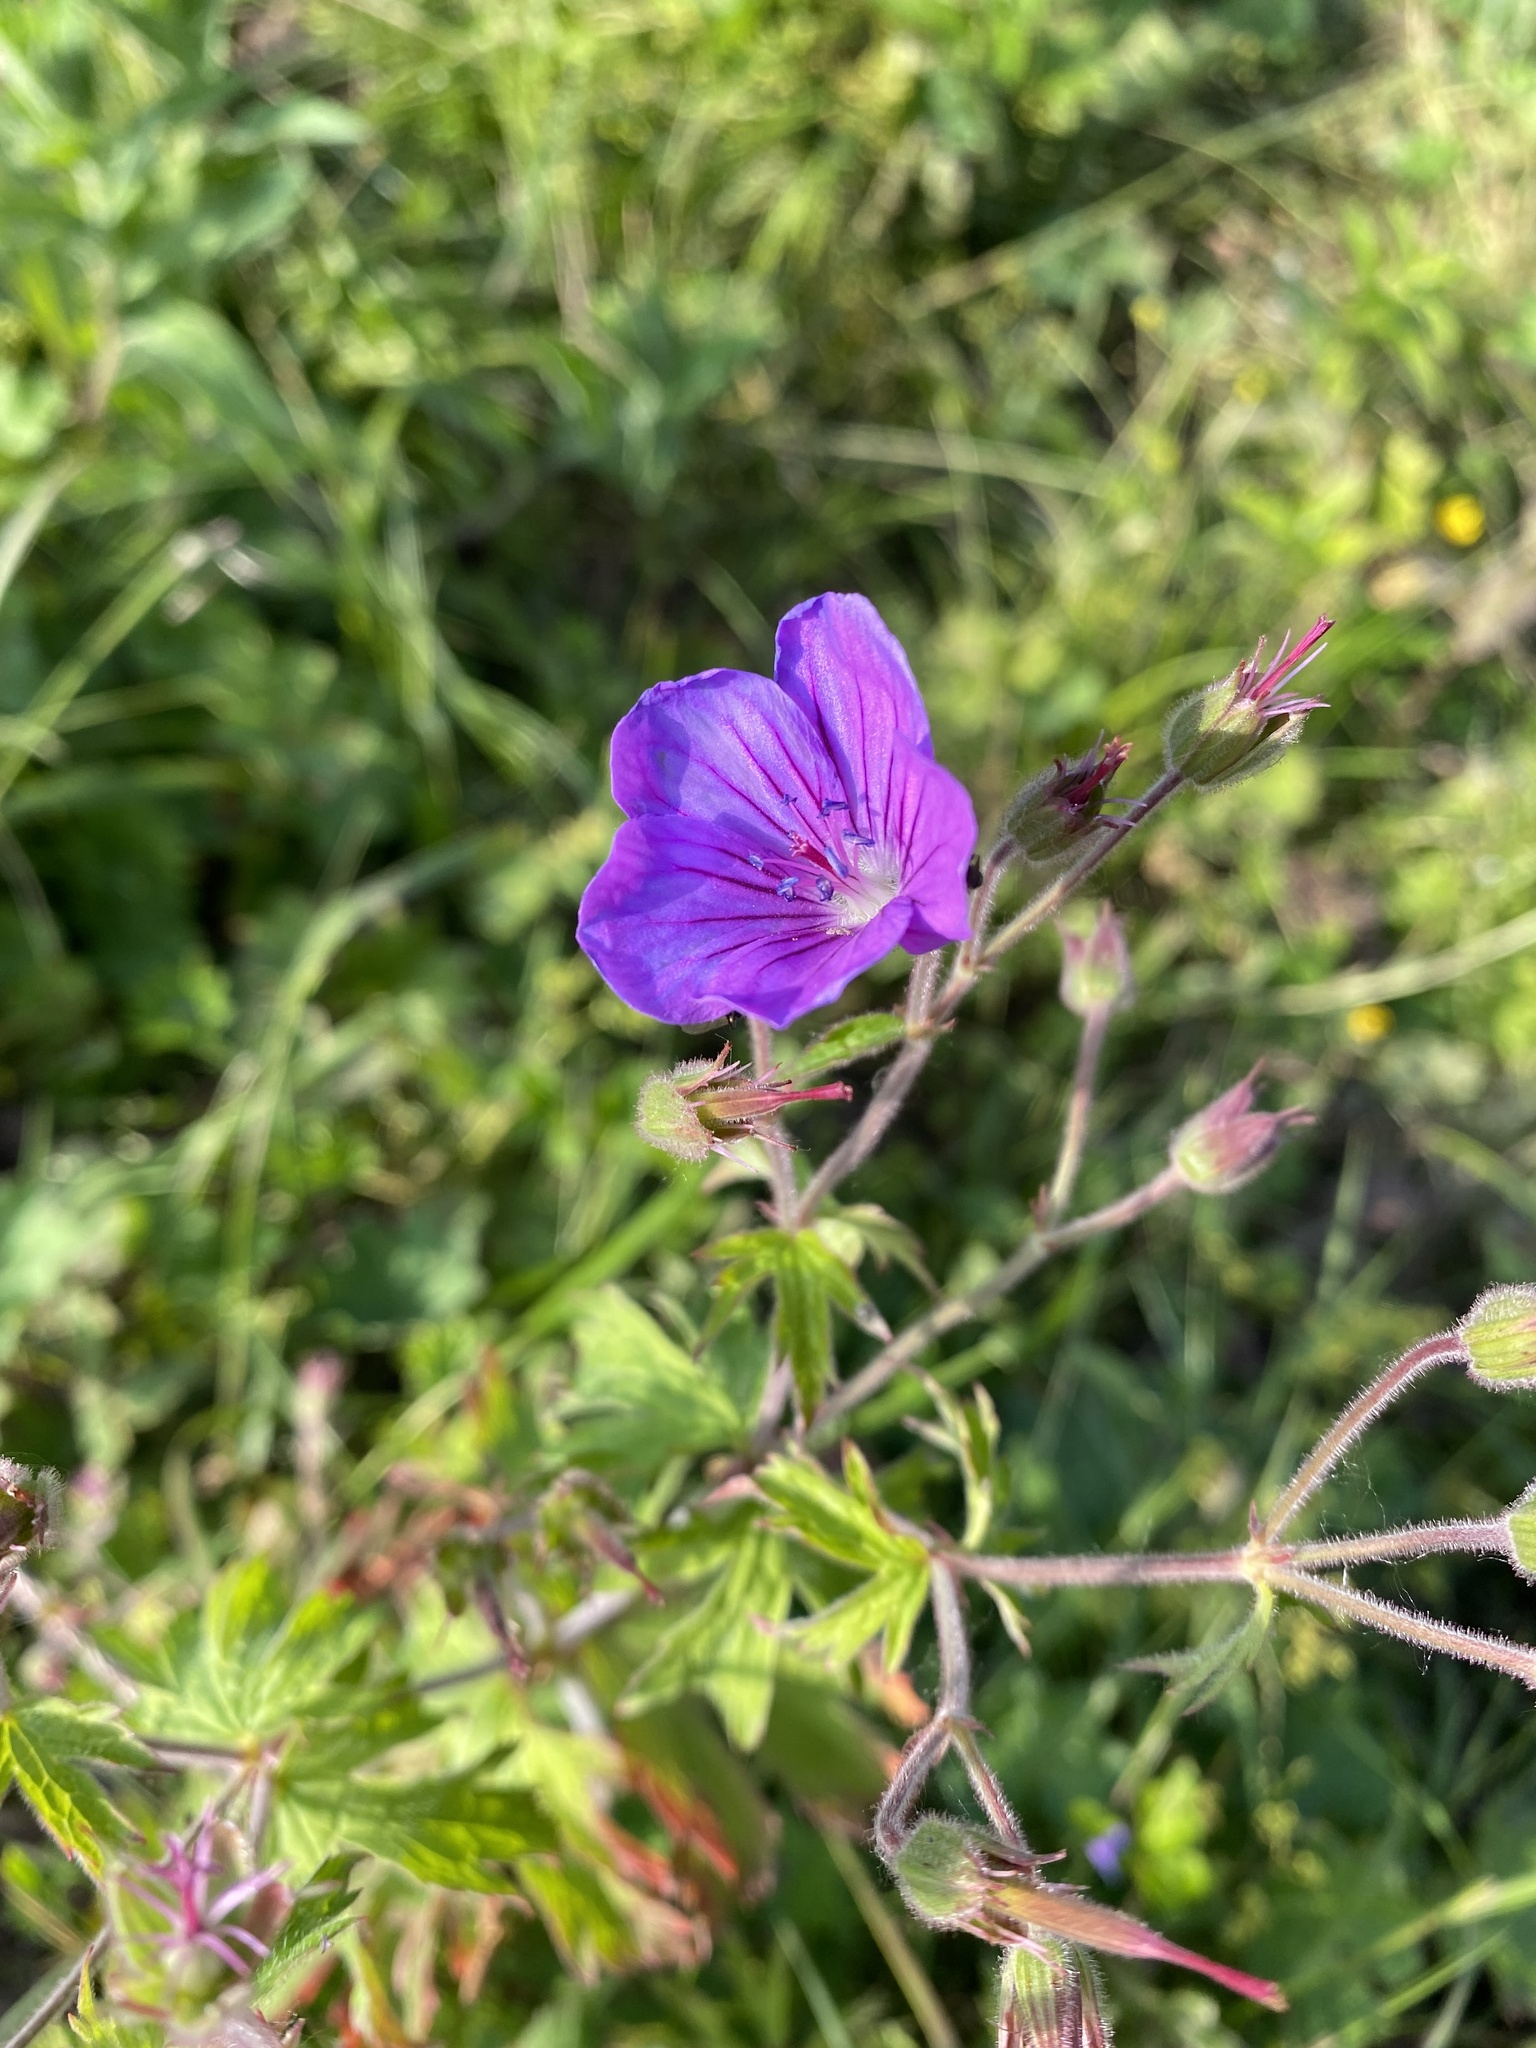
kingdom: Plantae
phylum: Tracheophyta
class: Magnoliopsida
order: Geraniales
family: Geraniaceae
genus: Geranium
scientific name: Geranium sylvaticum
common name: Wood crane's-bill
